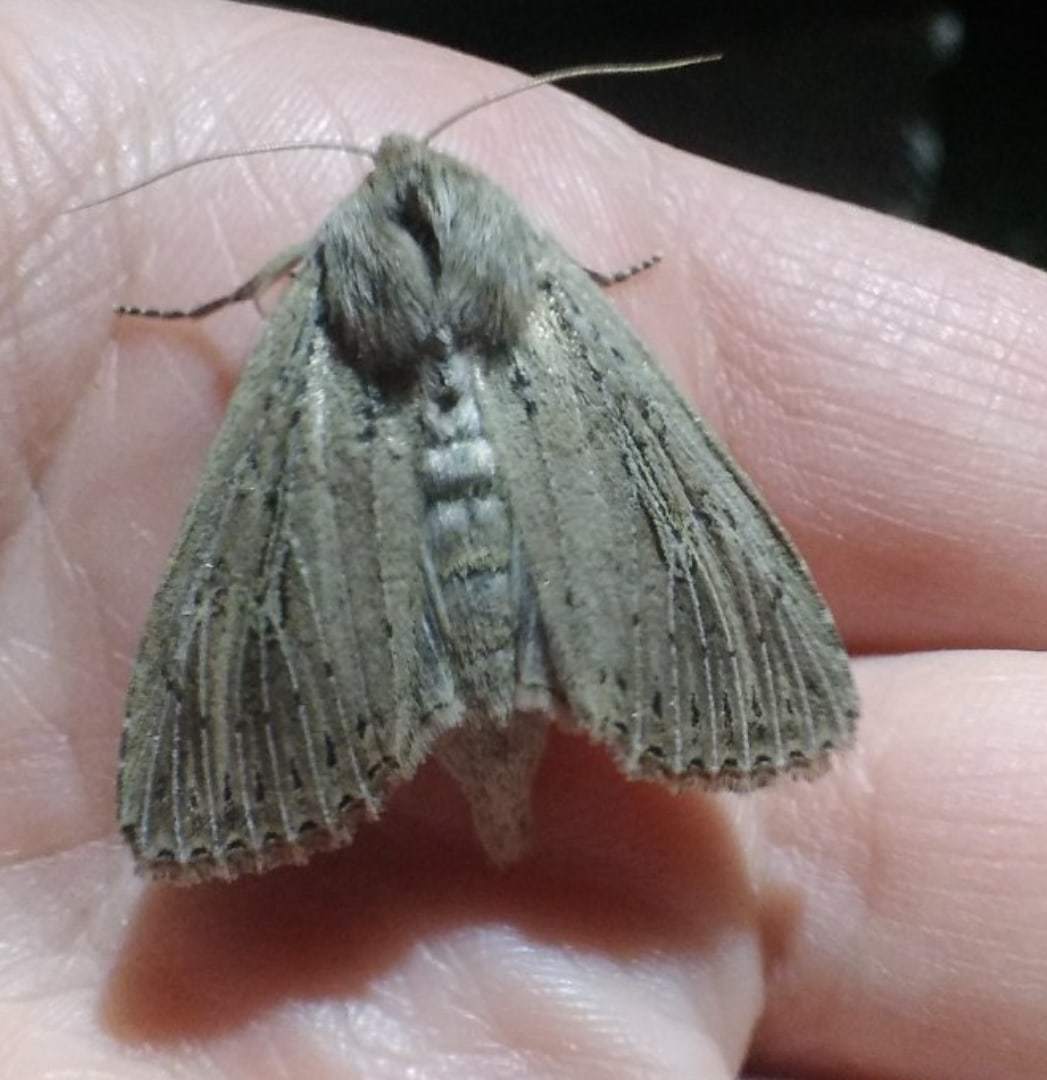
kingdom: Animalia
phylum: Arthropoda
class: Insecta
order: Lepidoptera
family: Noctuidae
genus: Nonagria
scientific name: Nonagria typhae
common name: Bulrush wainscot
